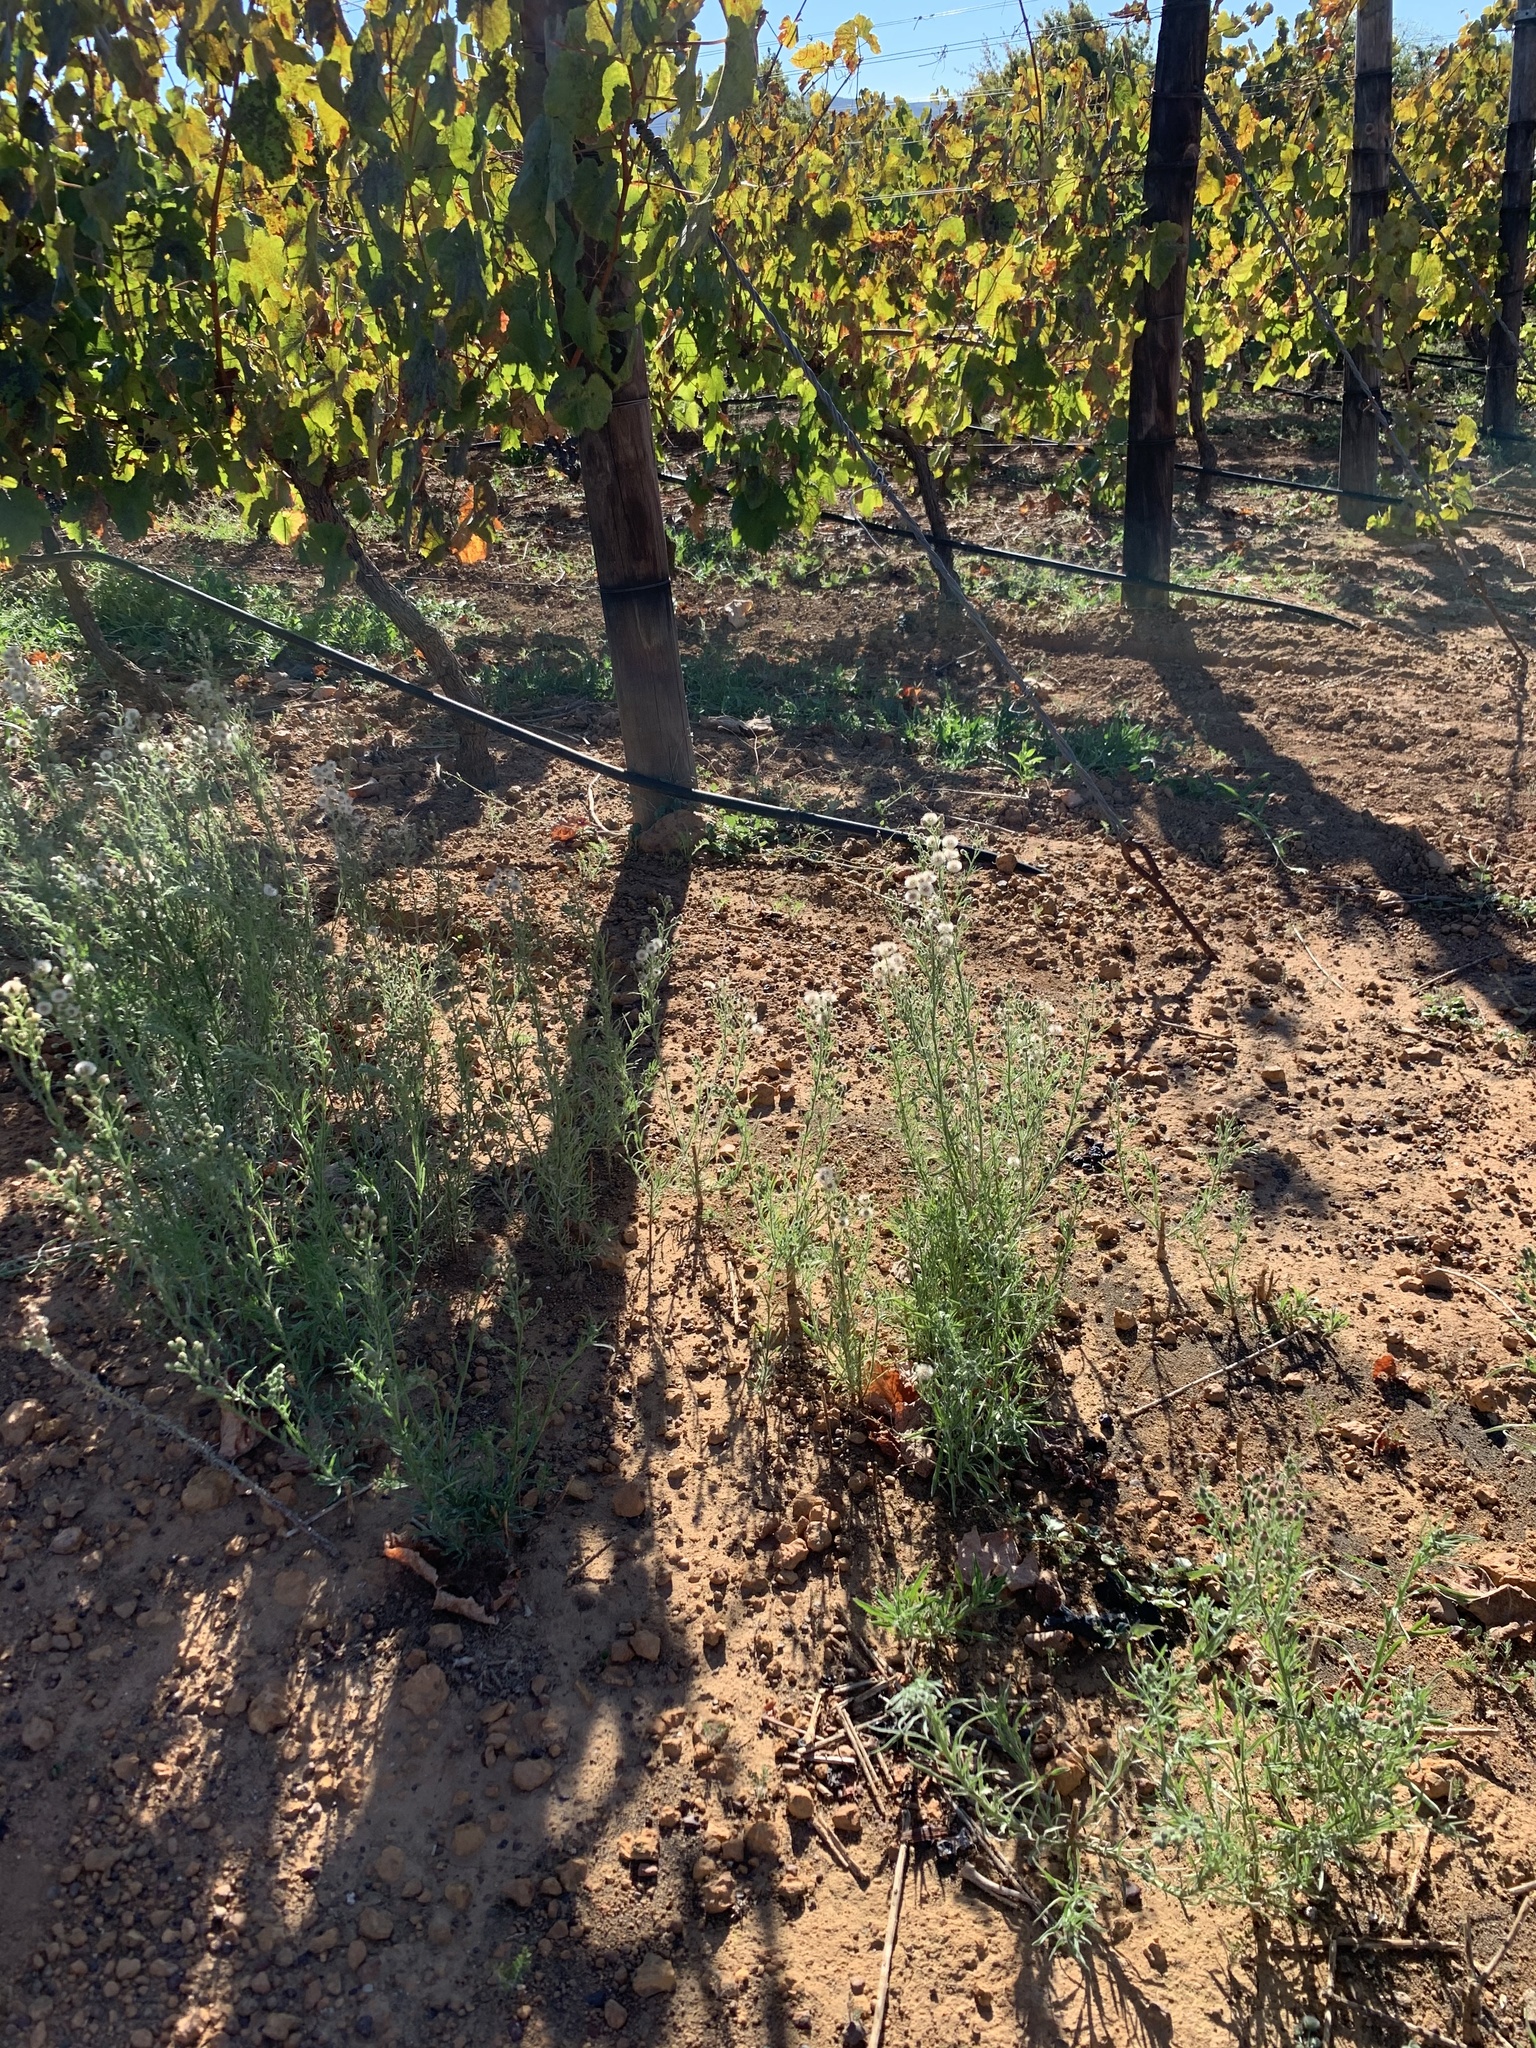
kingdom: Plantae
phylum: Tracheophyta
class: Magnoliopsida
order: Asterales
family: Asteraceae
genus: Erigeron
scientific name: Erigeron bonariensis
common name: Argentine fleabane
